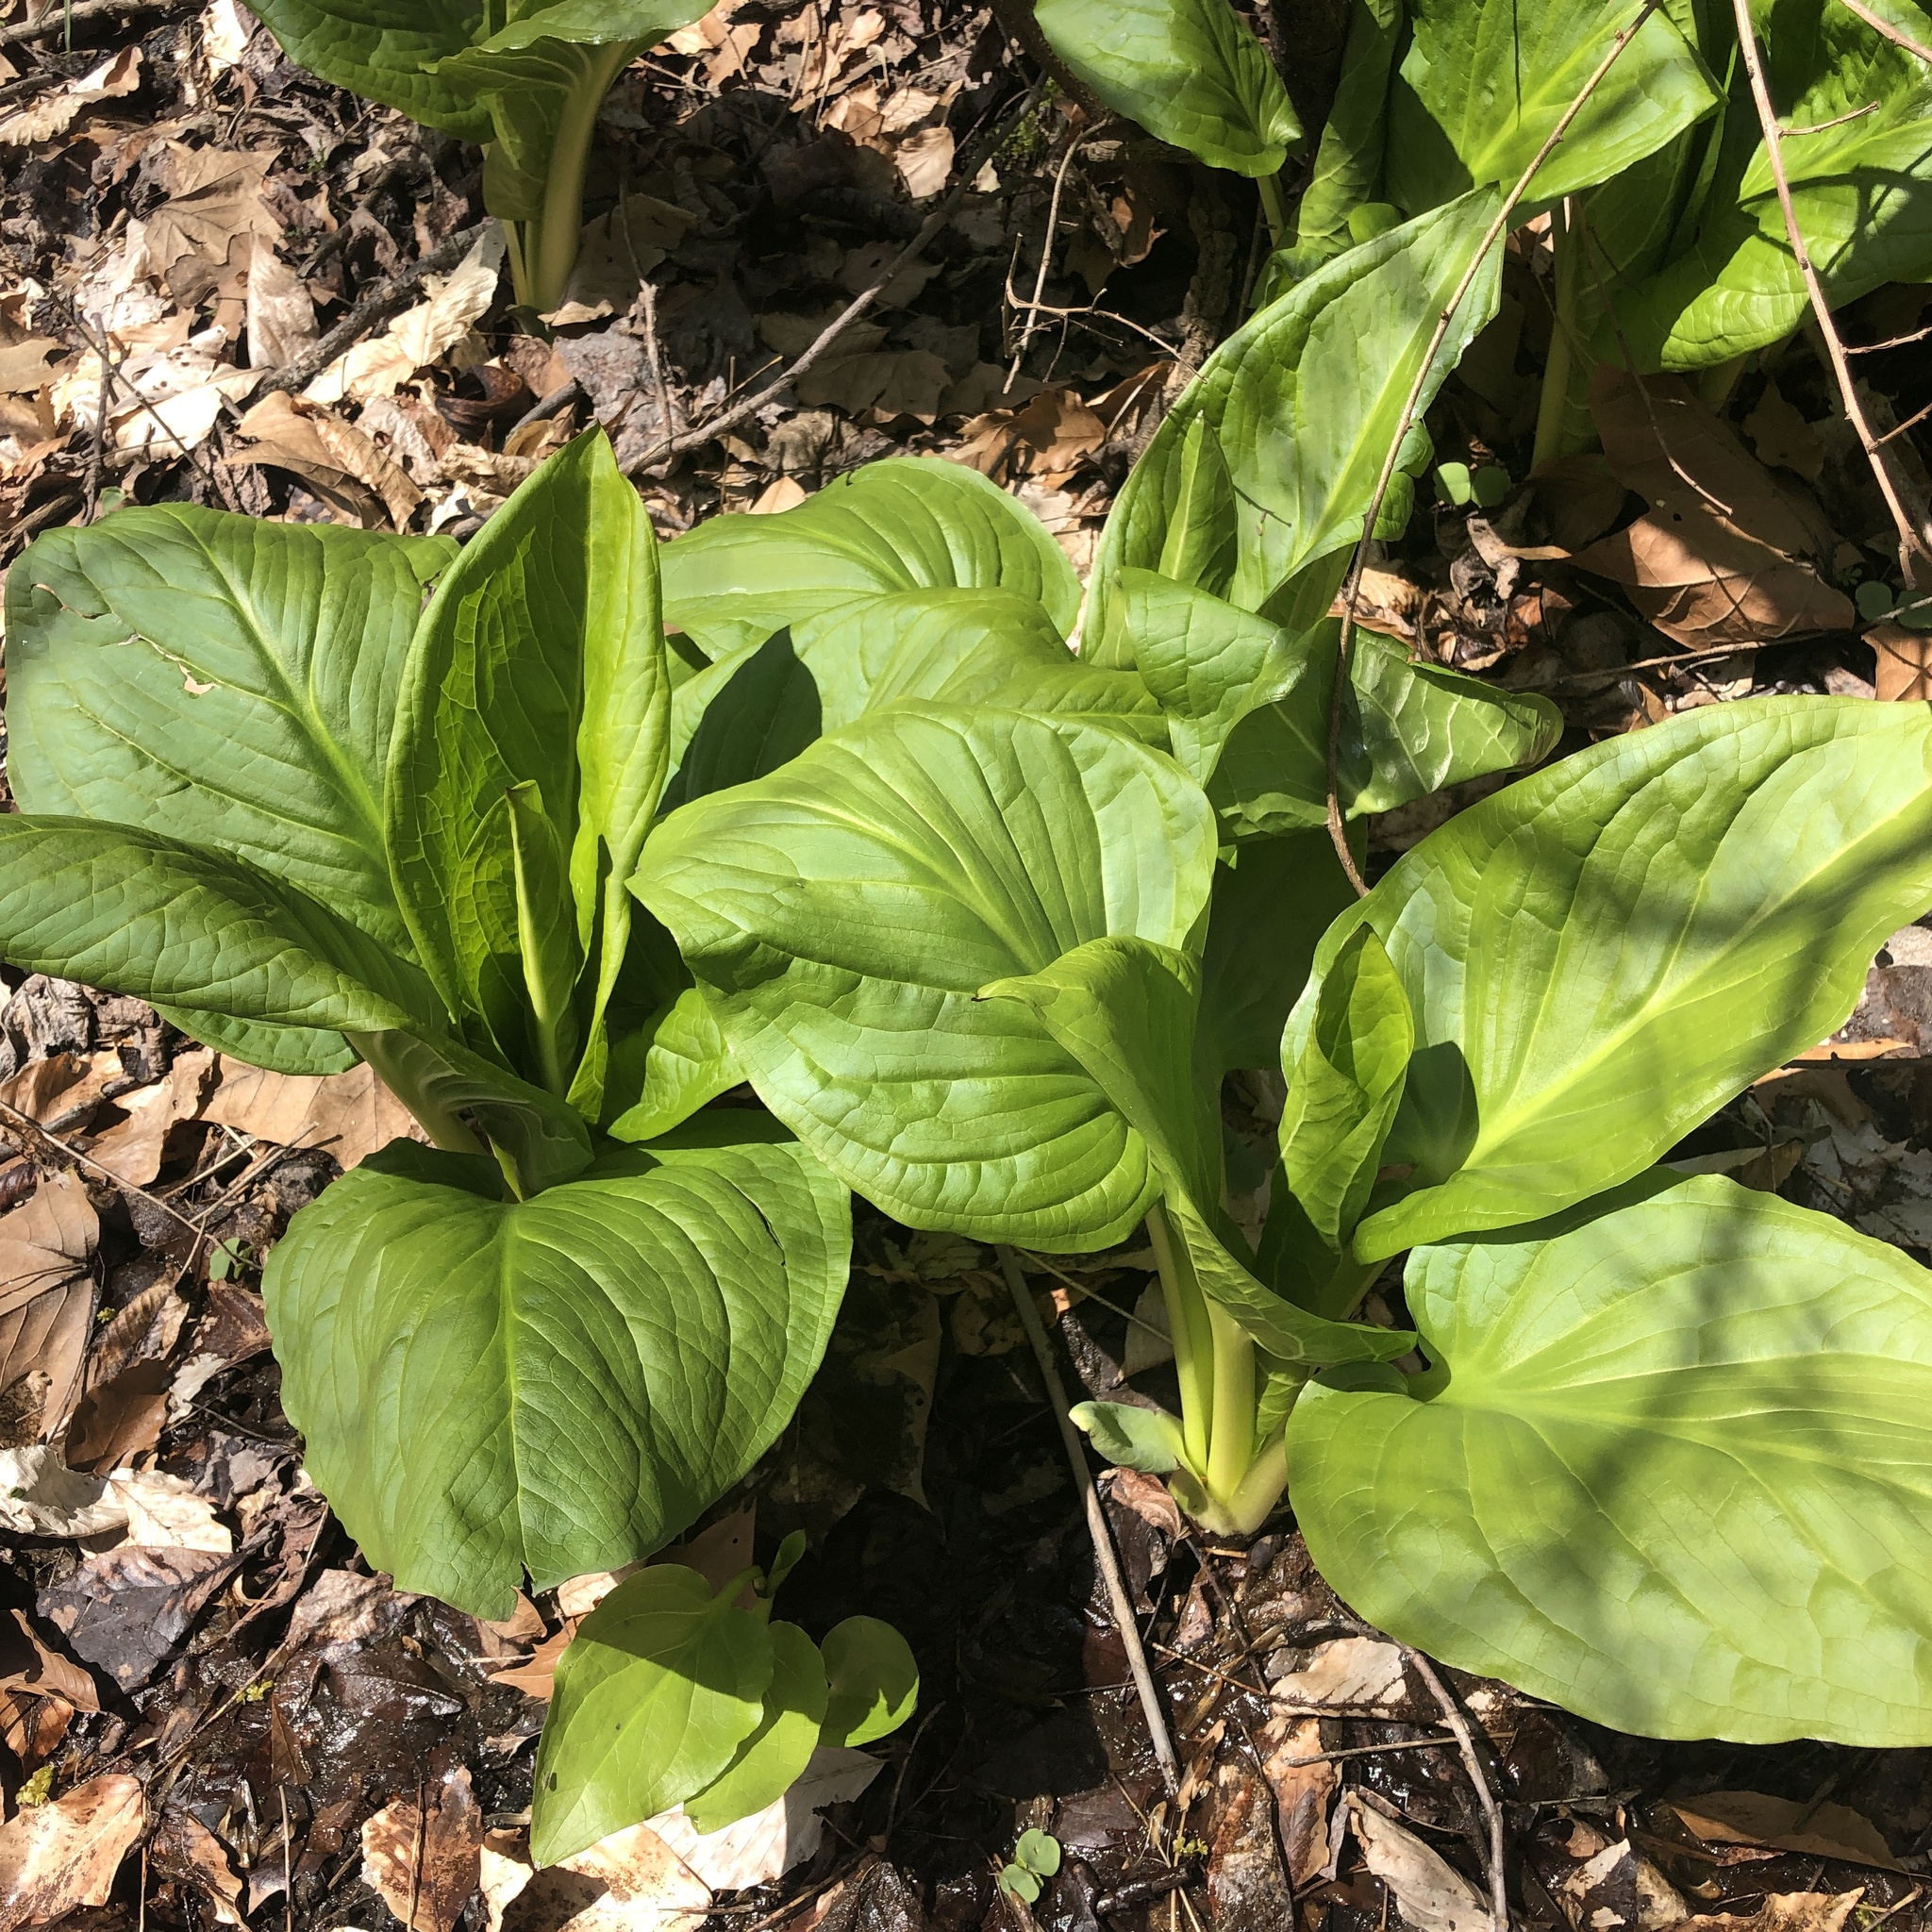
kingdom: Plantae
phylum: Tracheophyta
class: Liliopsida
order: Alismatales
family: Araceae
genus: Symplocarpus
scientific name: Symplocarpus foetidus
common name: Eastern skunk cabbage
